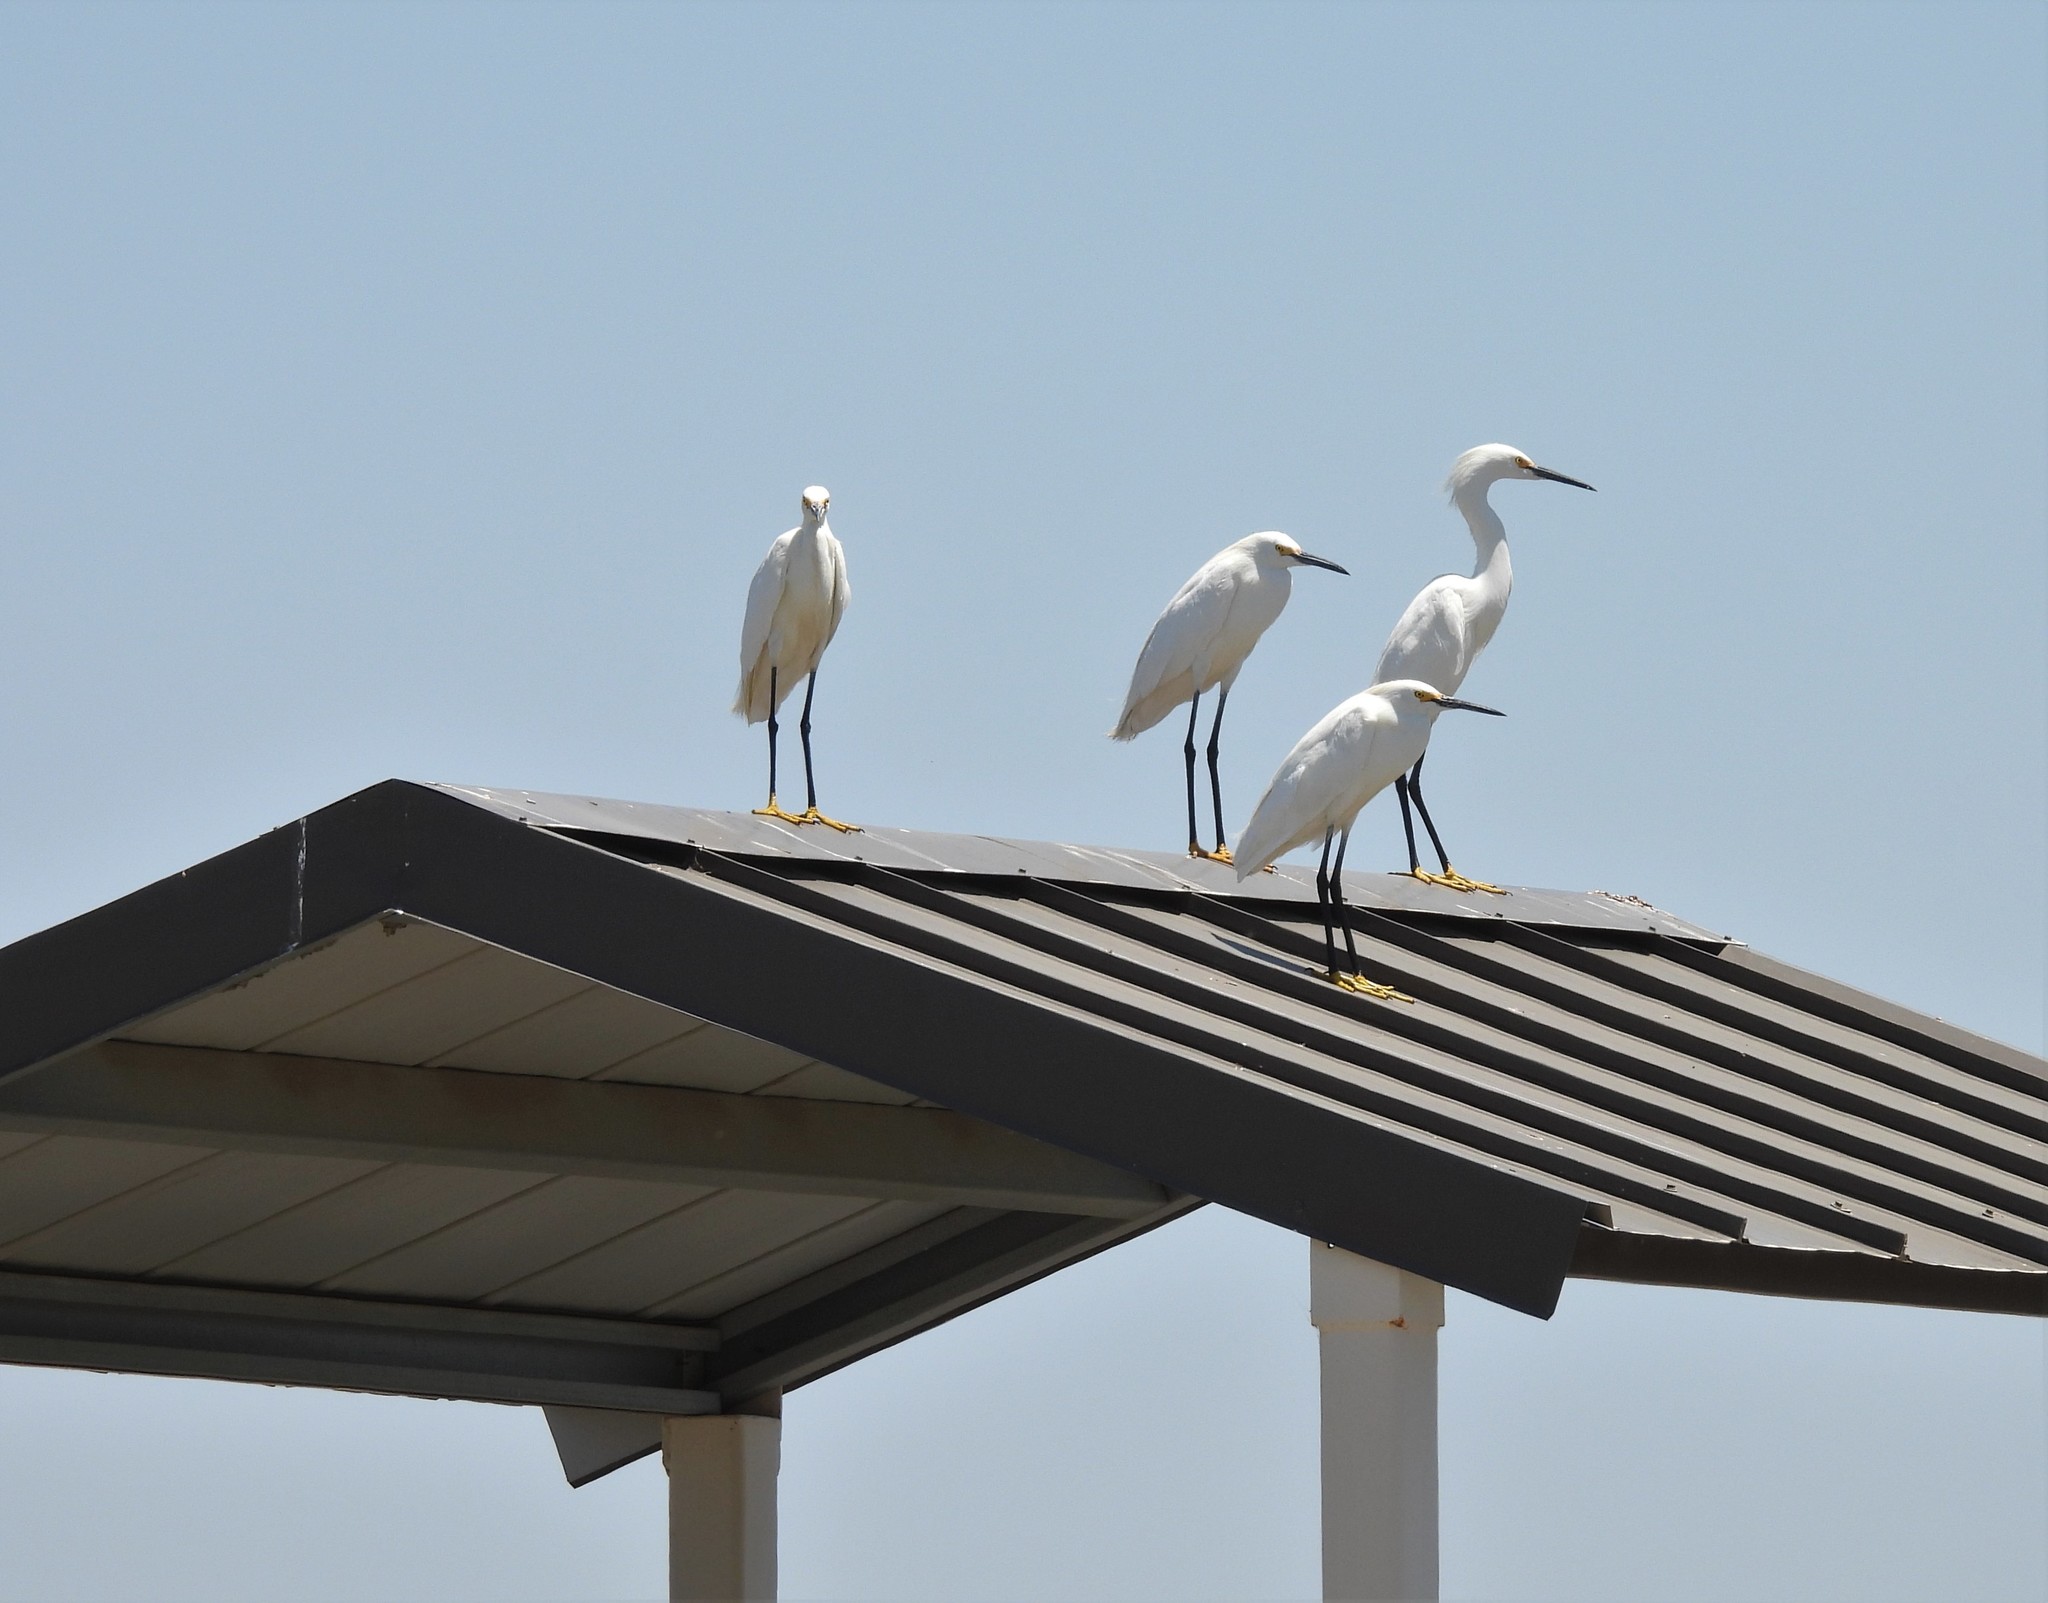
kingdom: Animalia
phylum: Chordata
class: Aves
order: Pelecaniformes
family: Ardeidae
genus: Egretta
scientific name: Egretta thula
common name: Snowy egret
